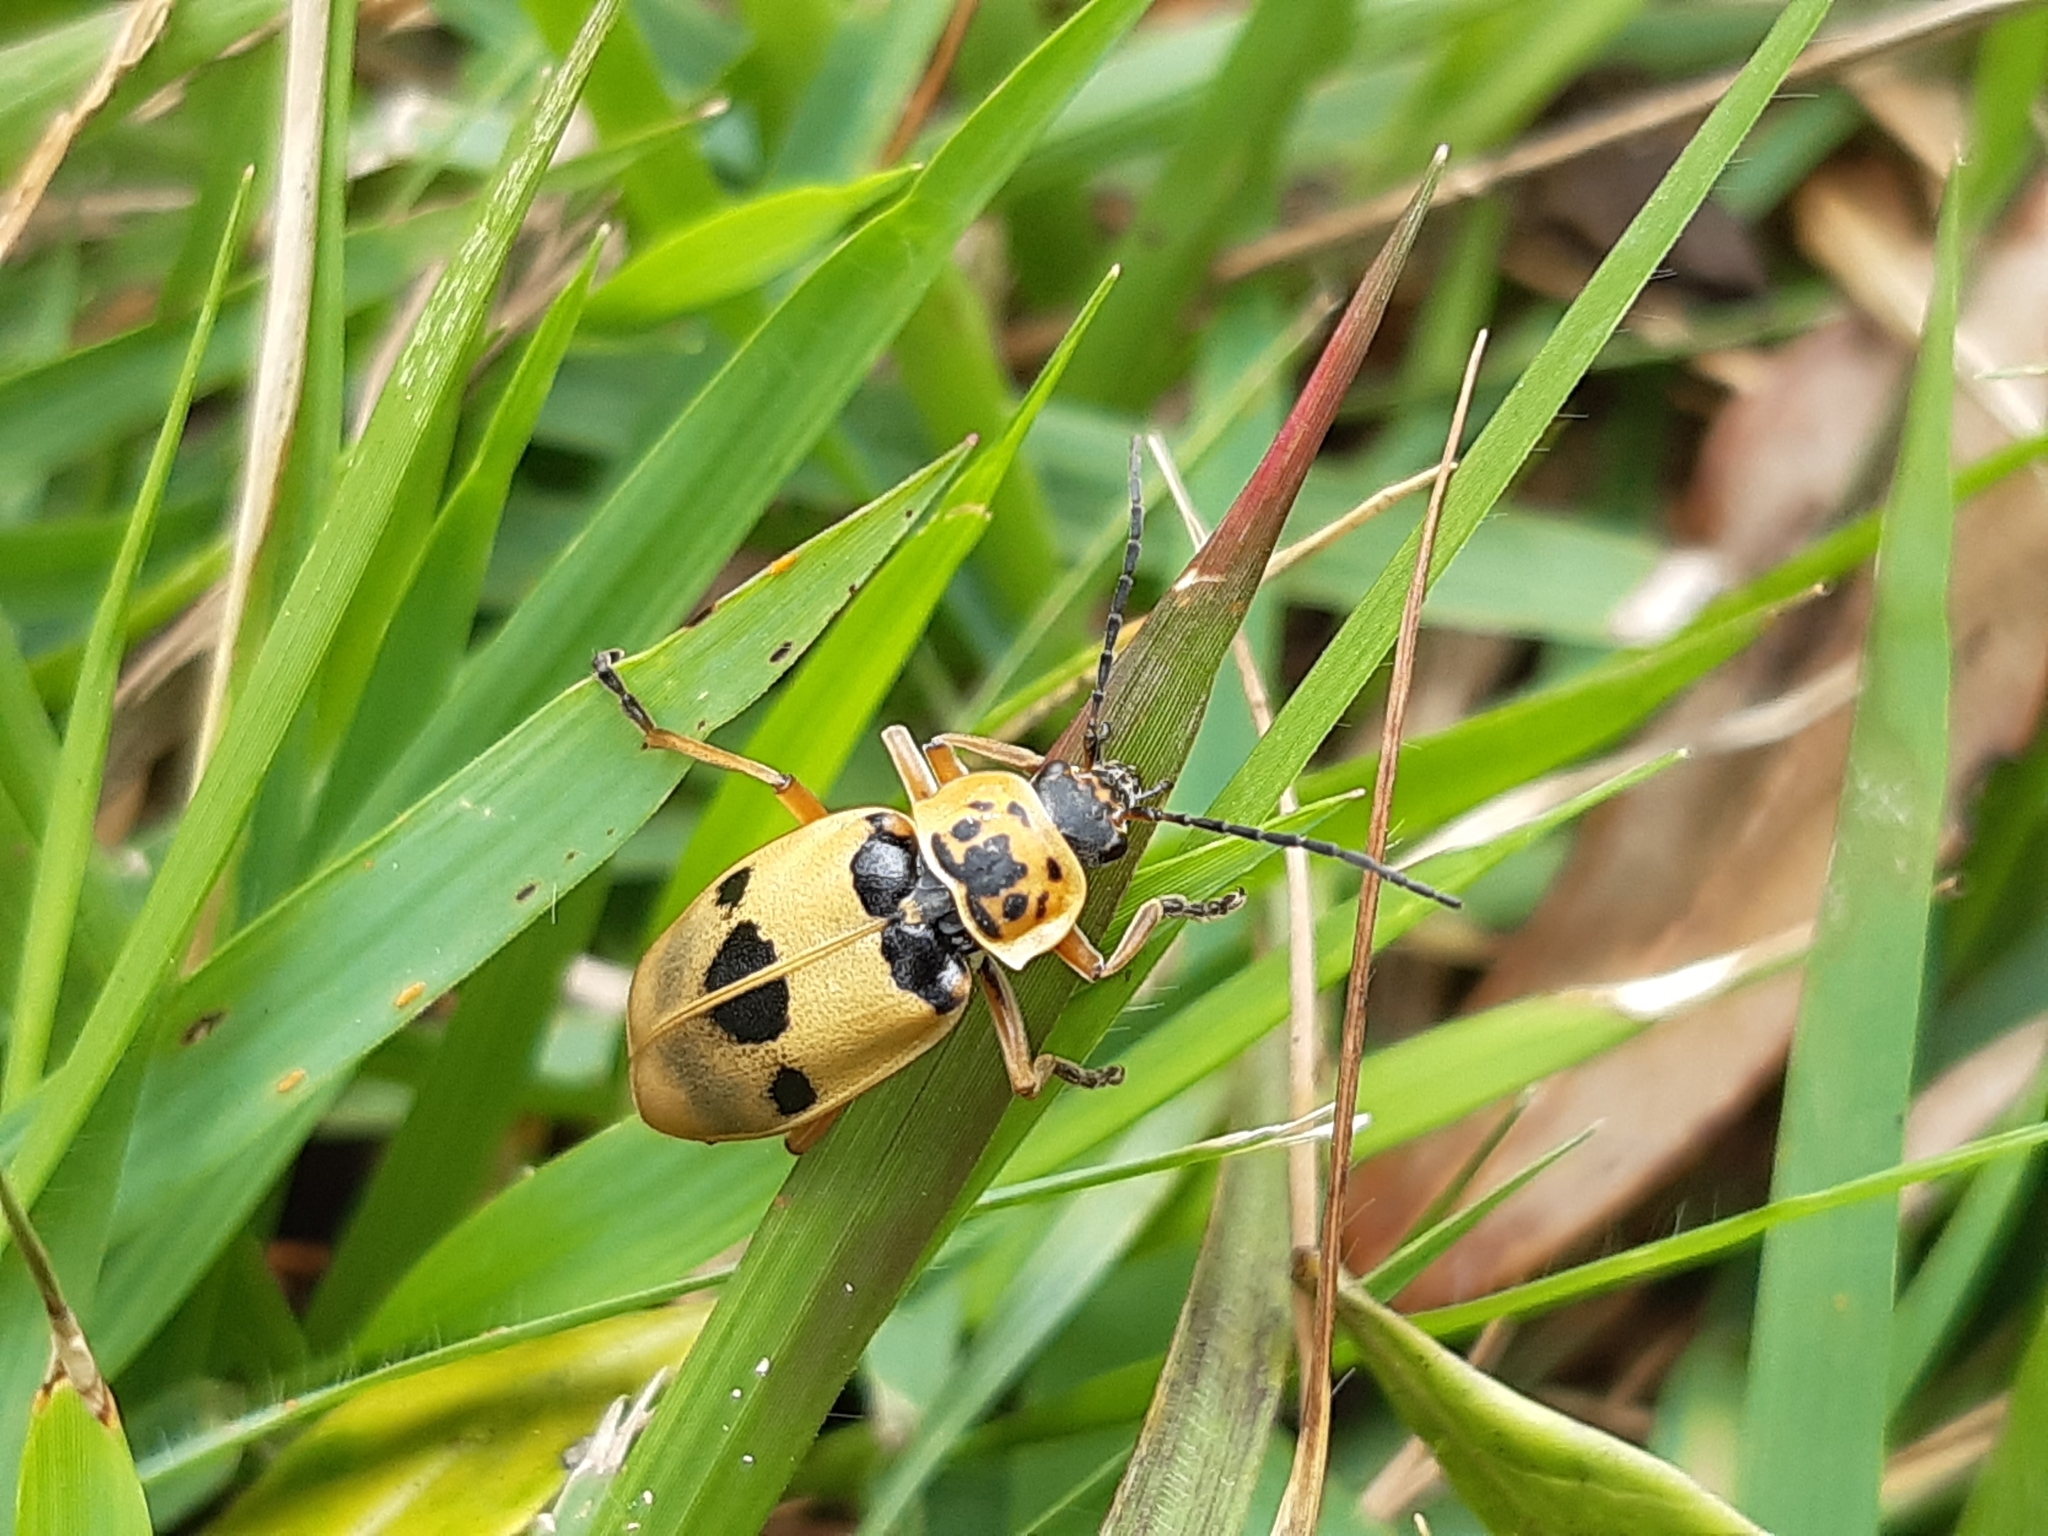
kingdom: Animalia
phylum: Arthropoda
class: Insecta
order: Coleoptera
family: Cantharidae
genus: Chauliognathus
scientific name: Chauliognathus
